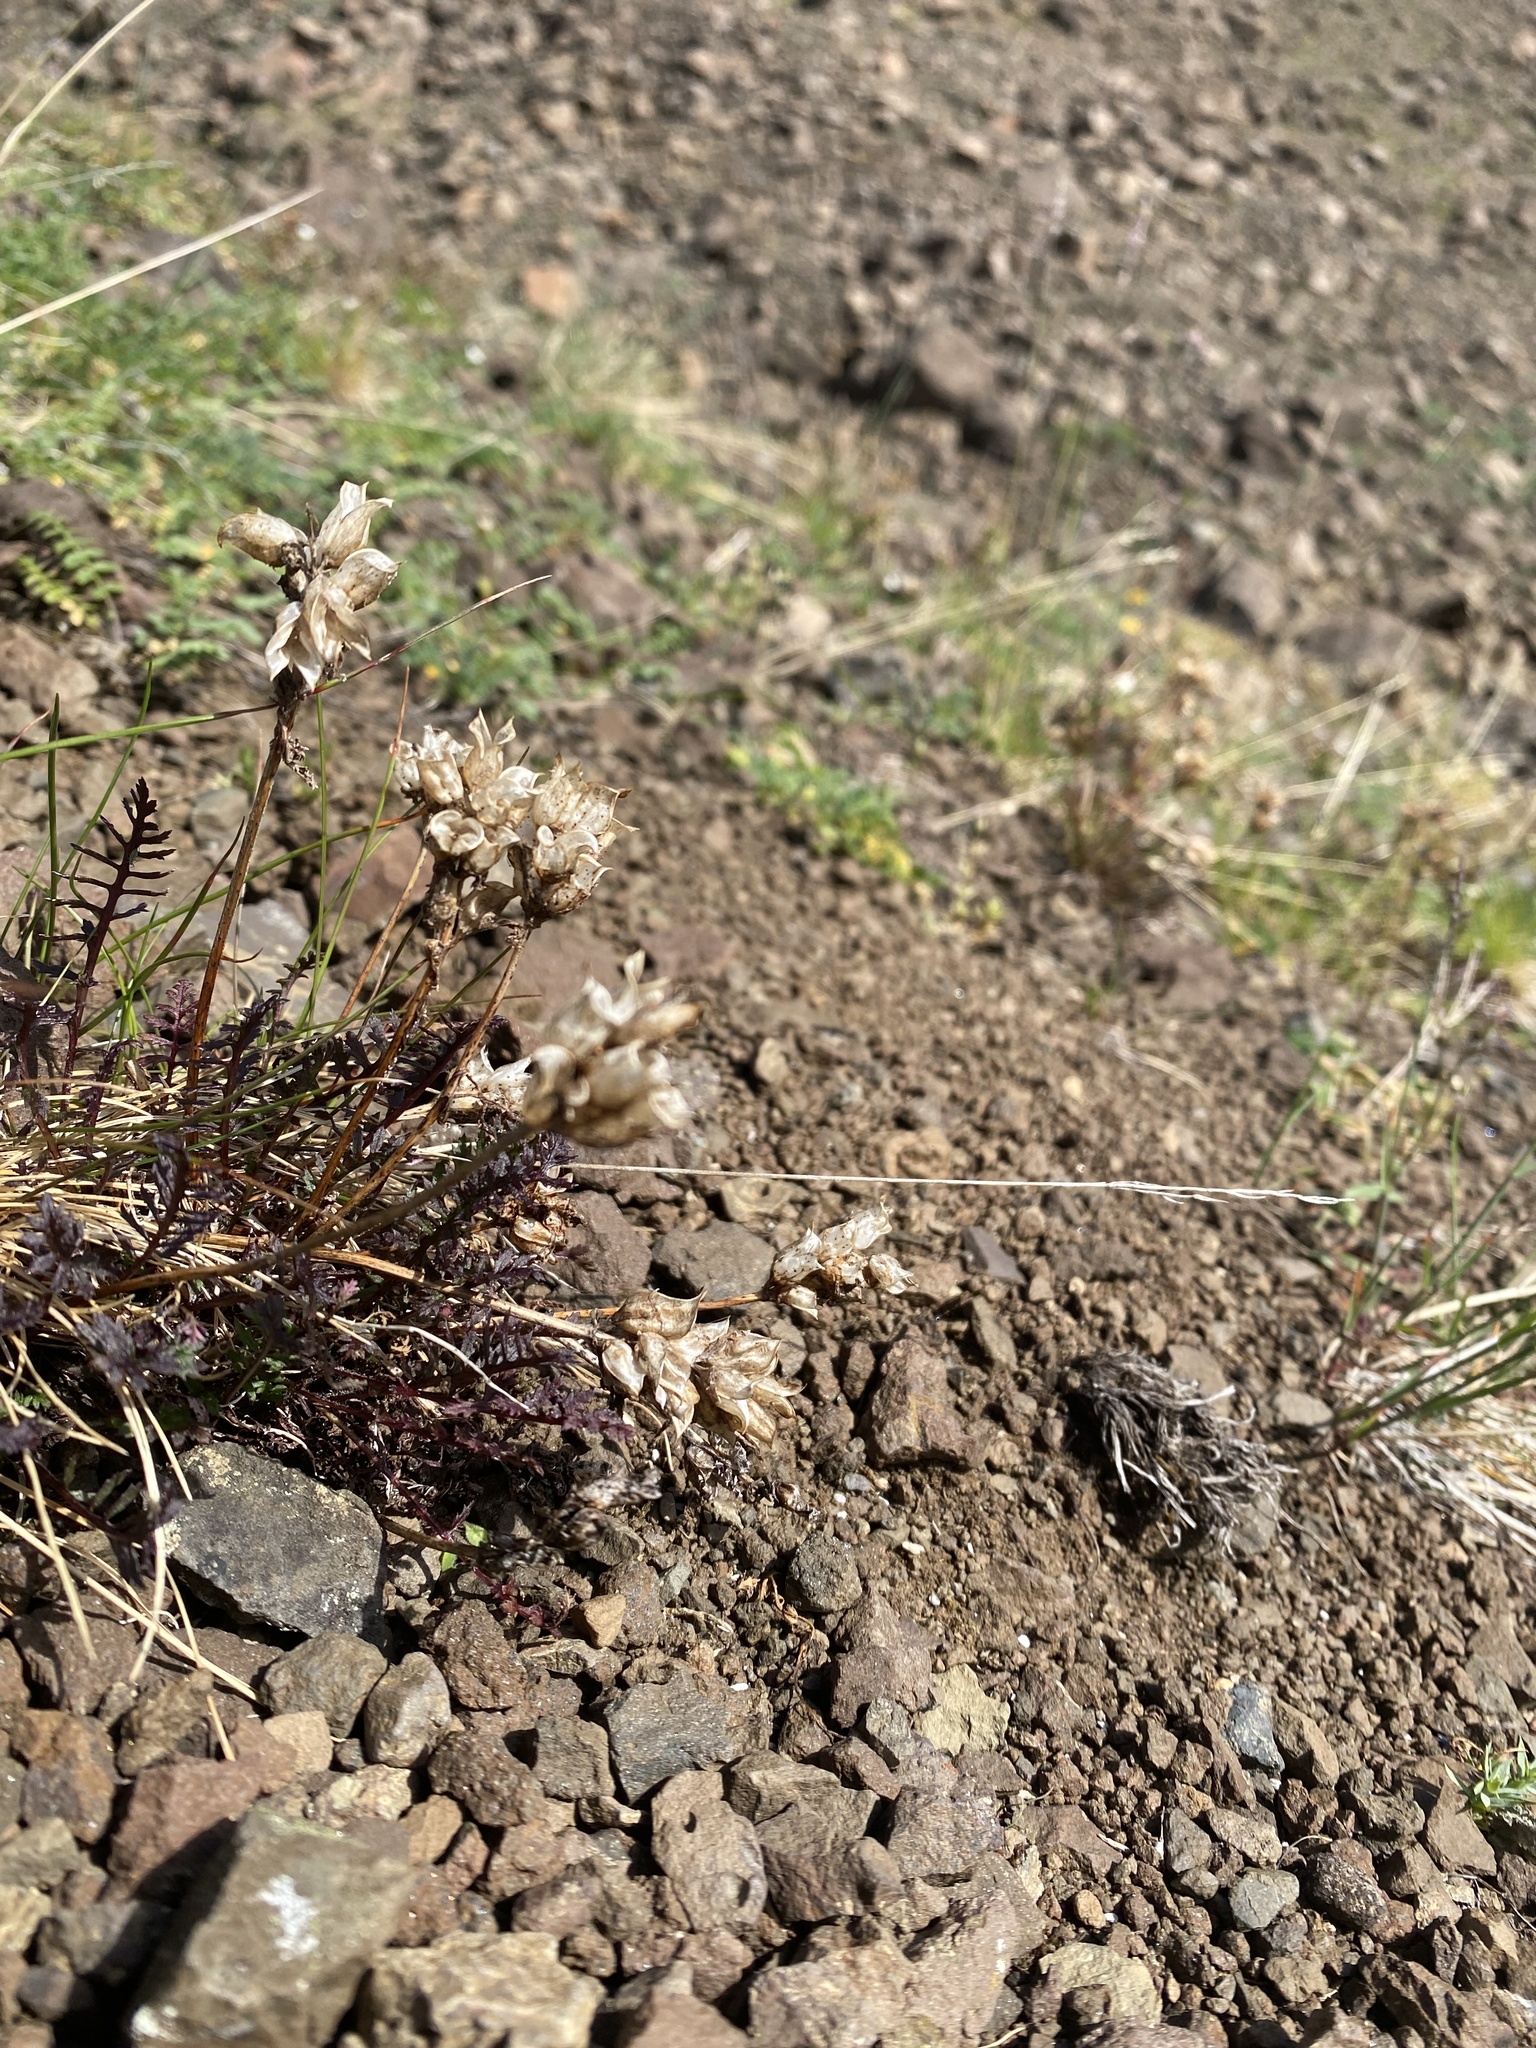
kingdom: Plantae
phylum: Tracheophyta
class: Magnoliopsida
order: Lamiales
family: Orobanchaceae
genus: Pedicularis
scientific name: Pedicularis amoena
